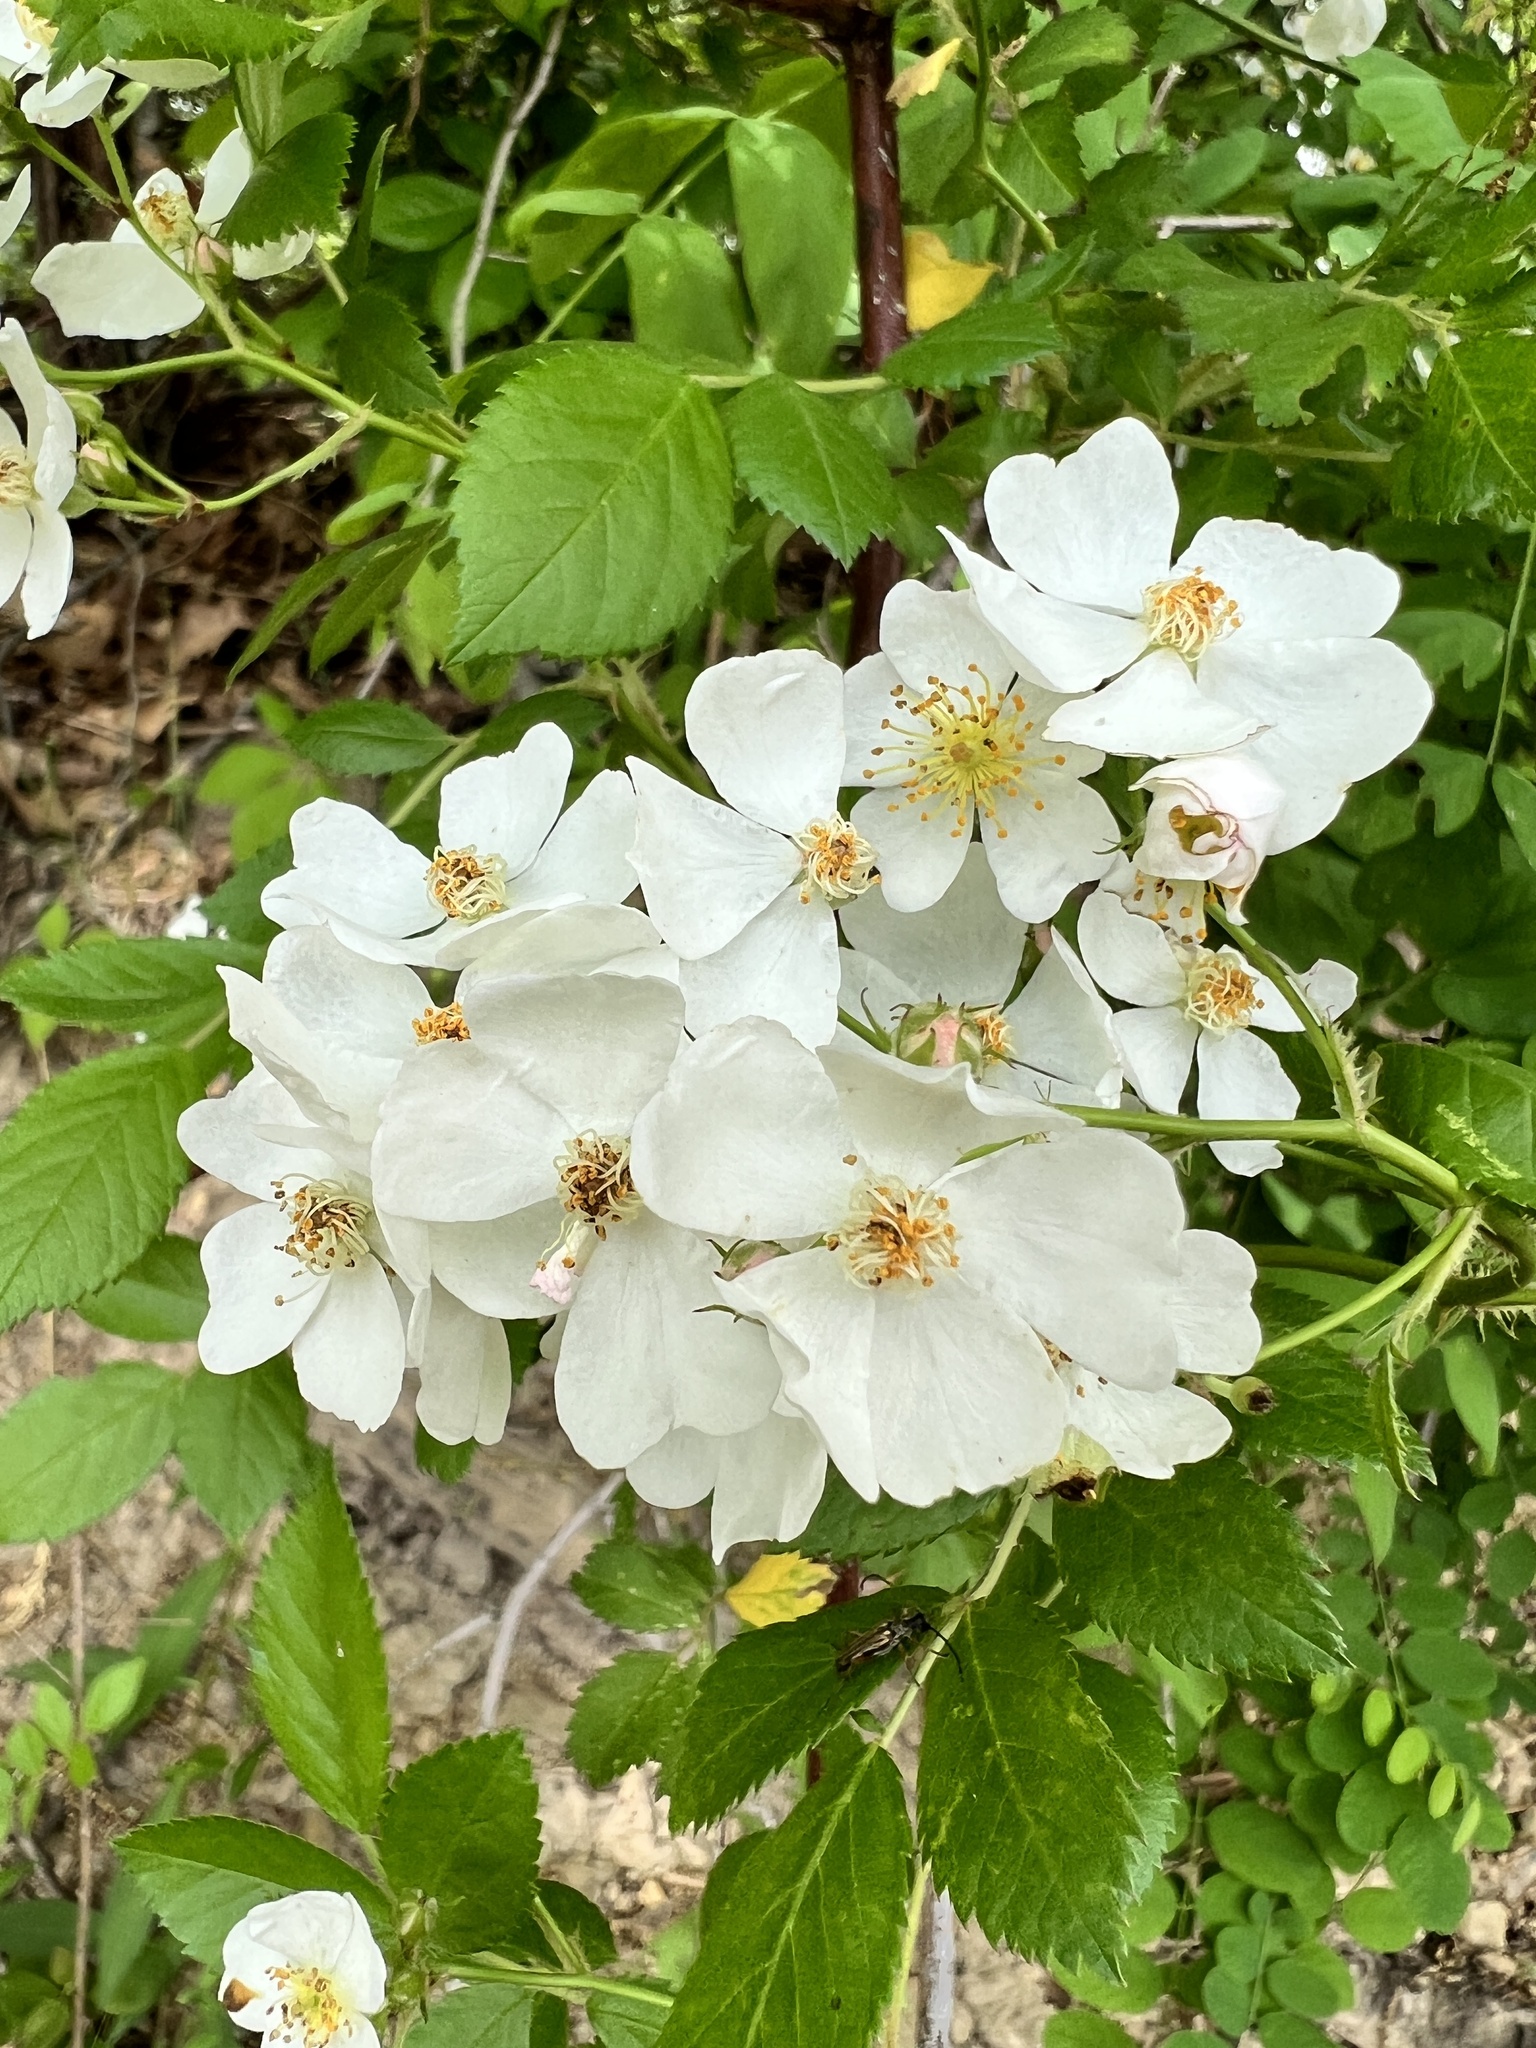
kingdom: Plantae
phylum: Tracheophyta
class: Magnoliopsida
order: Rosales
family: Rosaceae
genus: Rosa
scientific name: Rosa multiflora
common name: Multiflora rose
